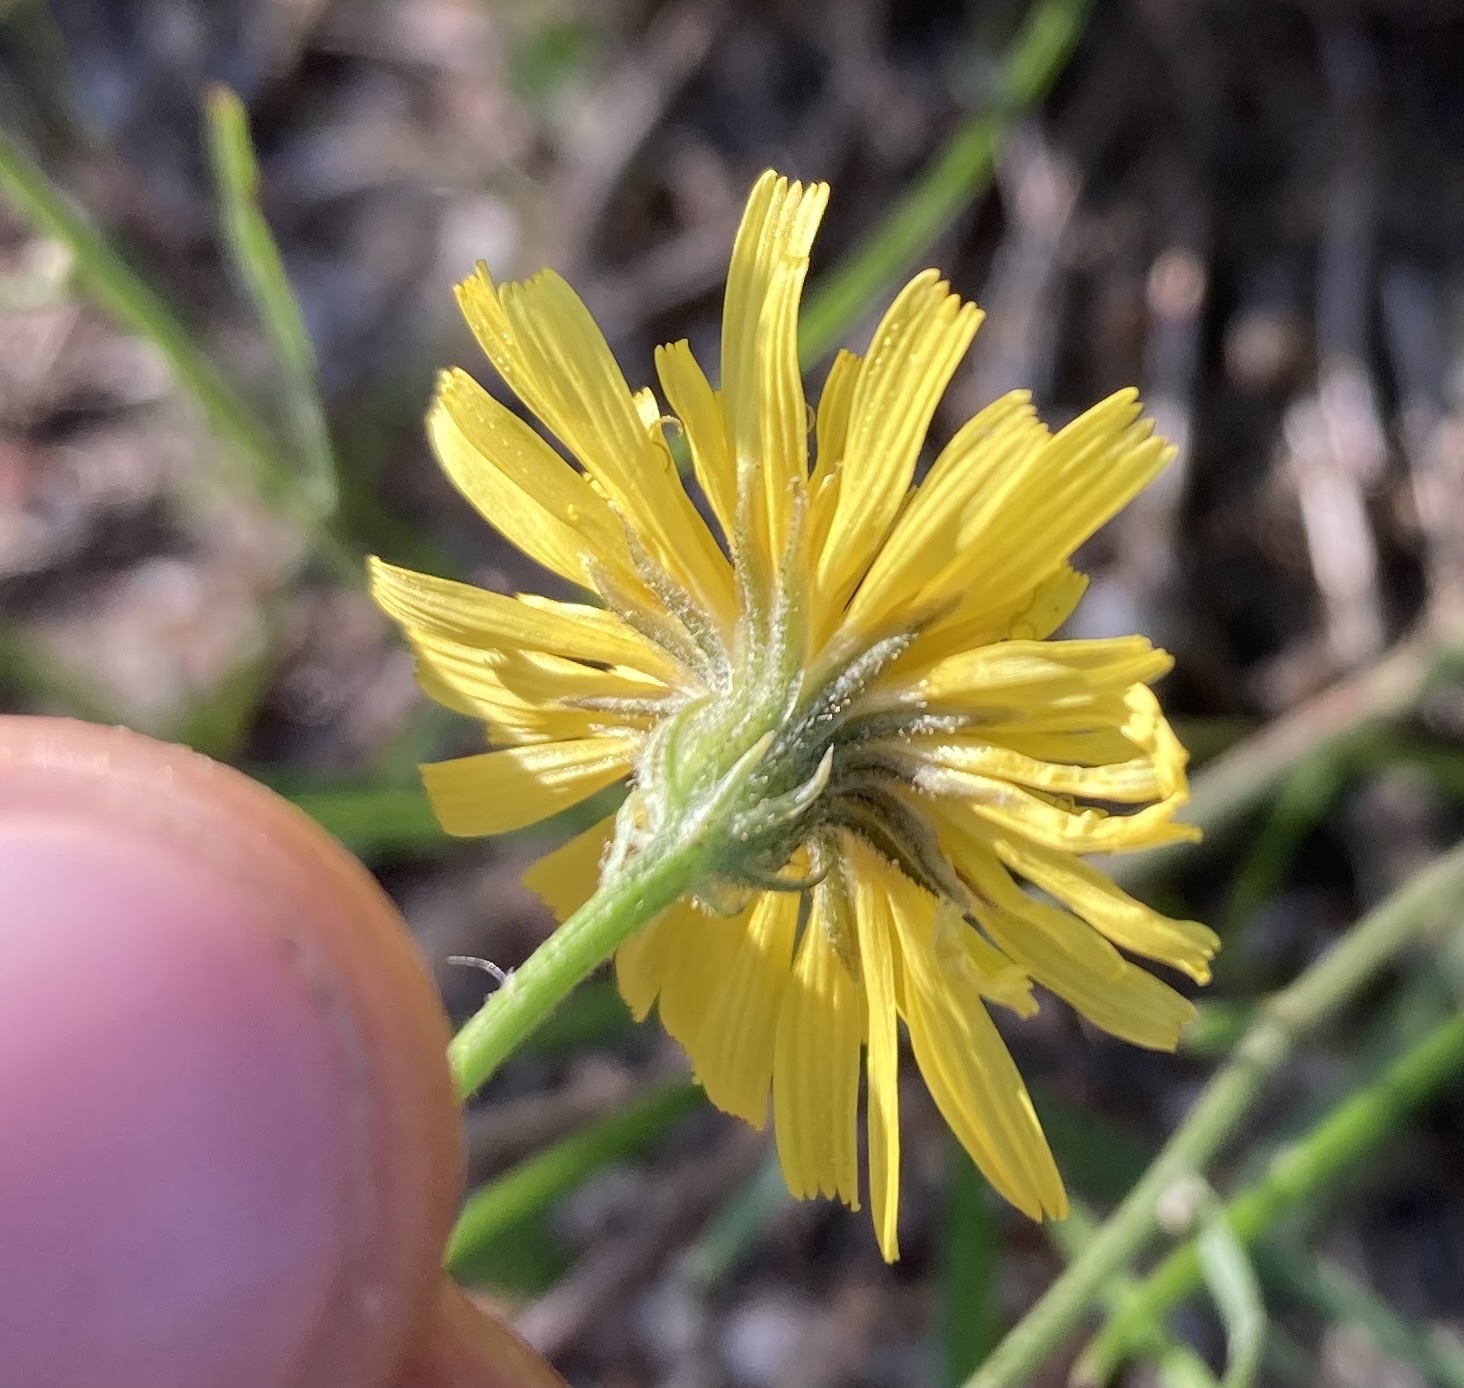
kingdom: Plantae
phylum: Tracheophyta
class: Magnoliopsida
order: Asterales
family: Asteraceae
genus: Crepis
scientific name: Crepis tectorum
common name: Narrow-leaved hawk's-beard
